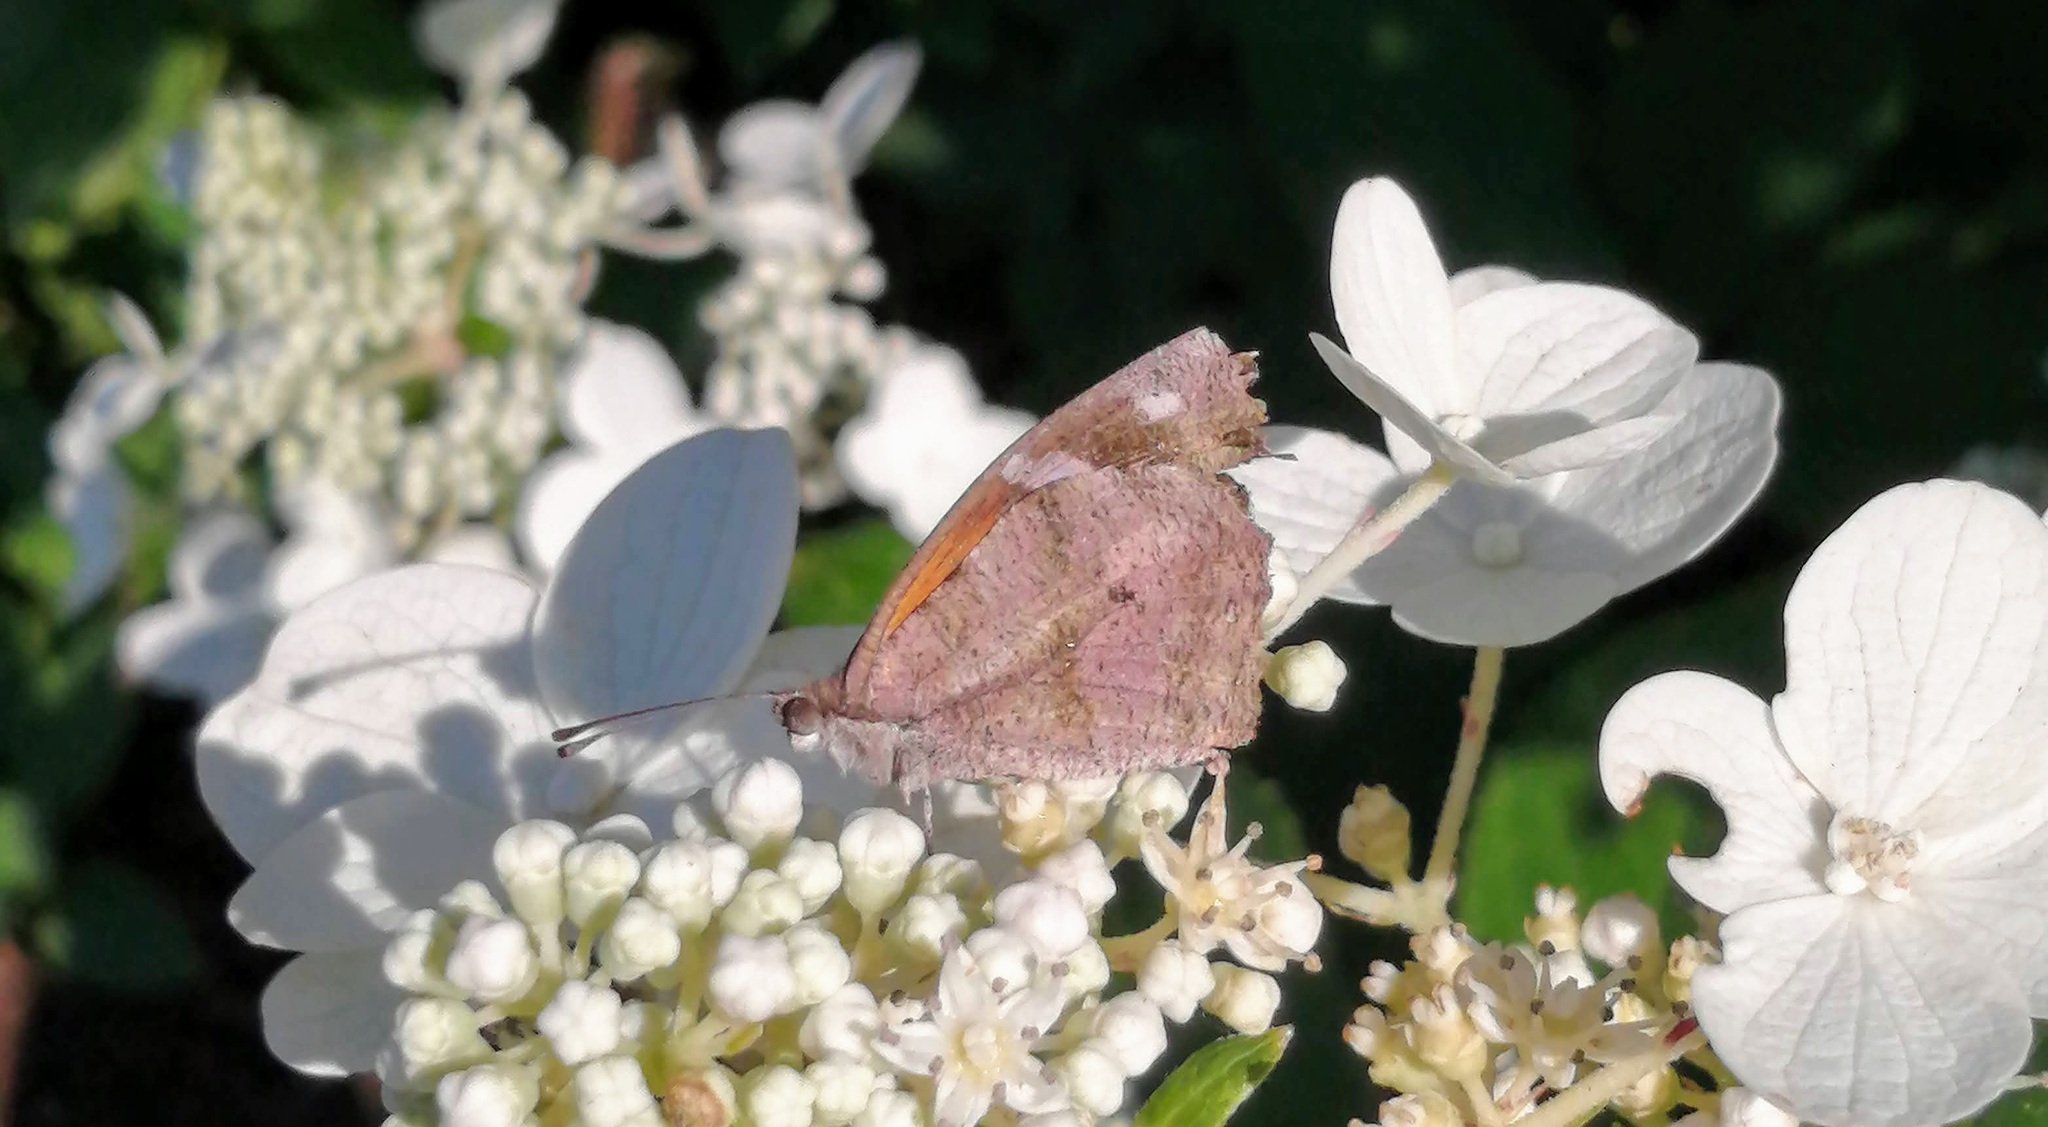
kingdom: Animalia
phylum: Arthropoda
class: Insecta
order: Lepidoptera
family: Nymphalidae
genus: Libytheana
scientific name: Libytheana carinenta
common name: American snout
